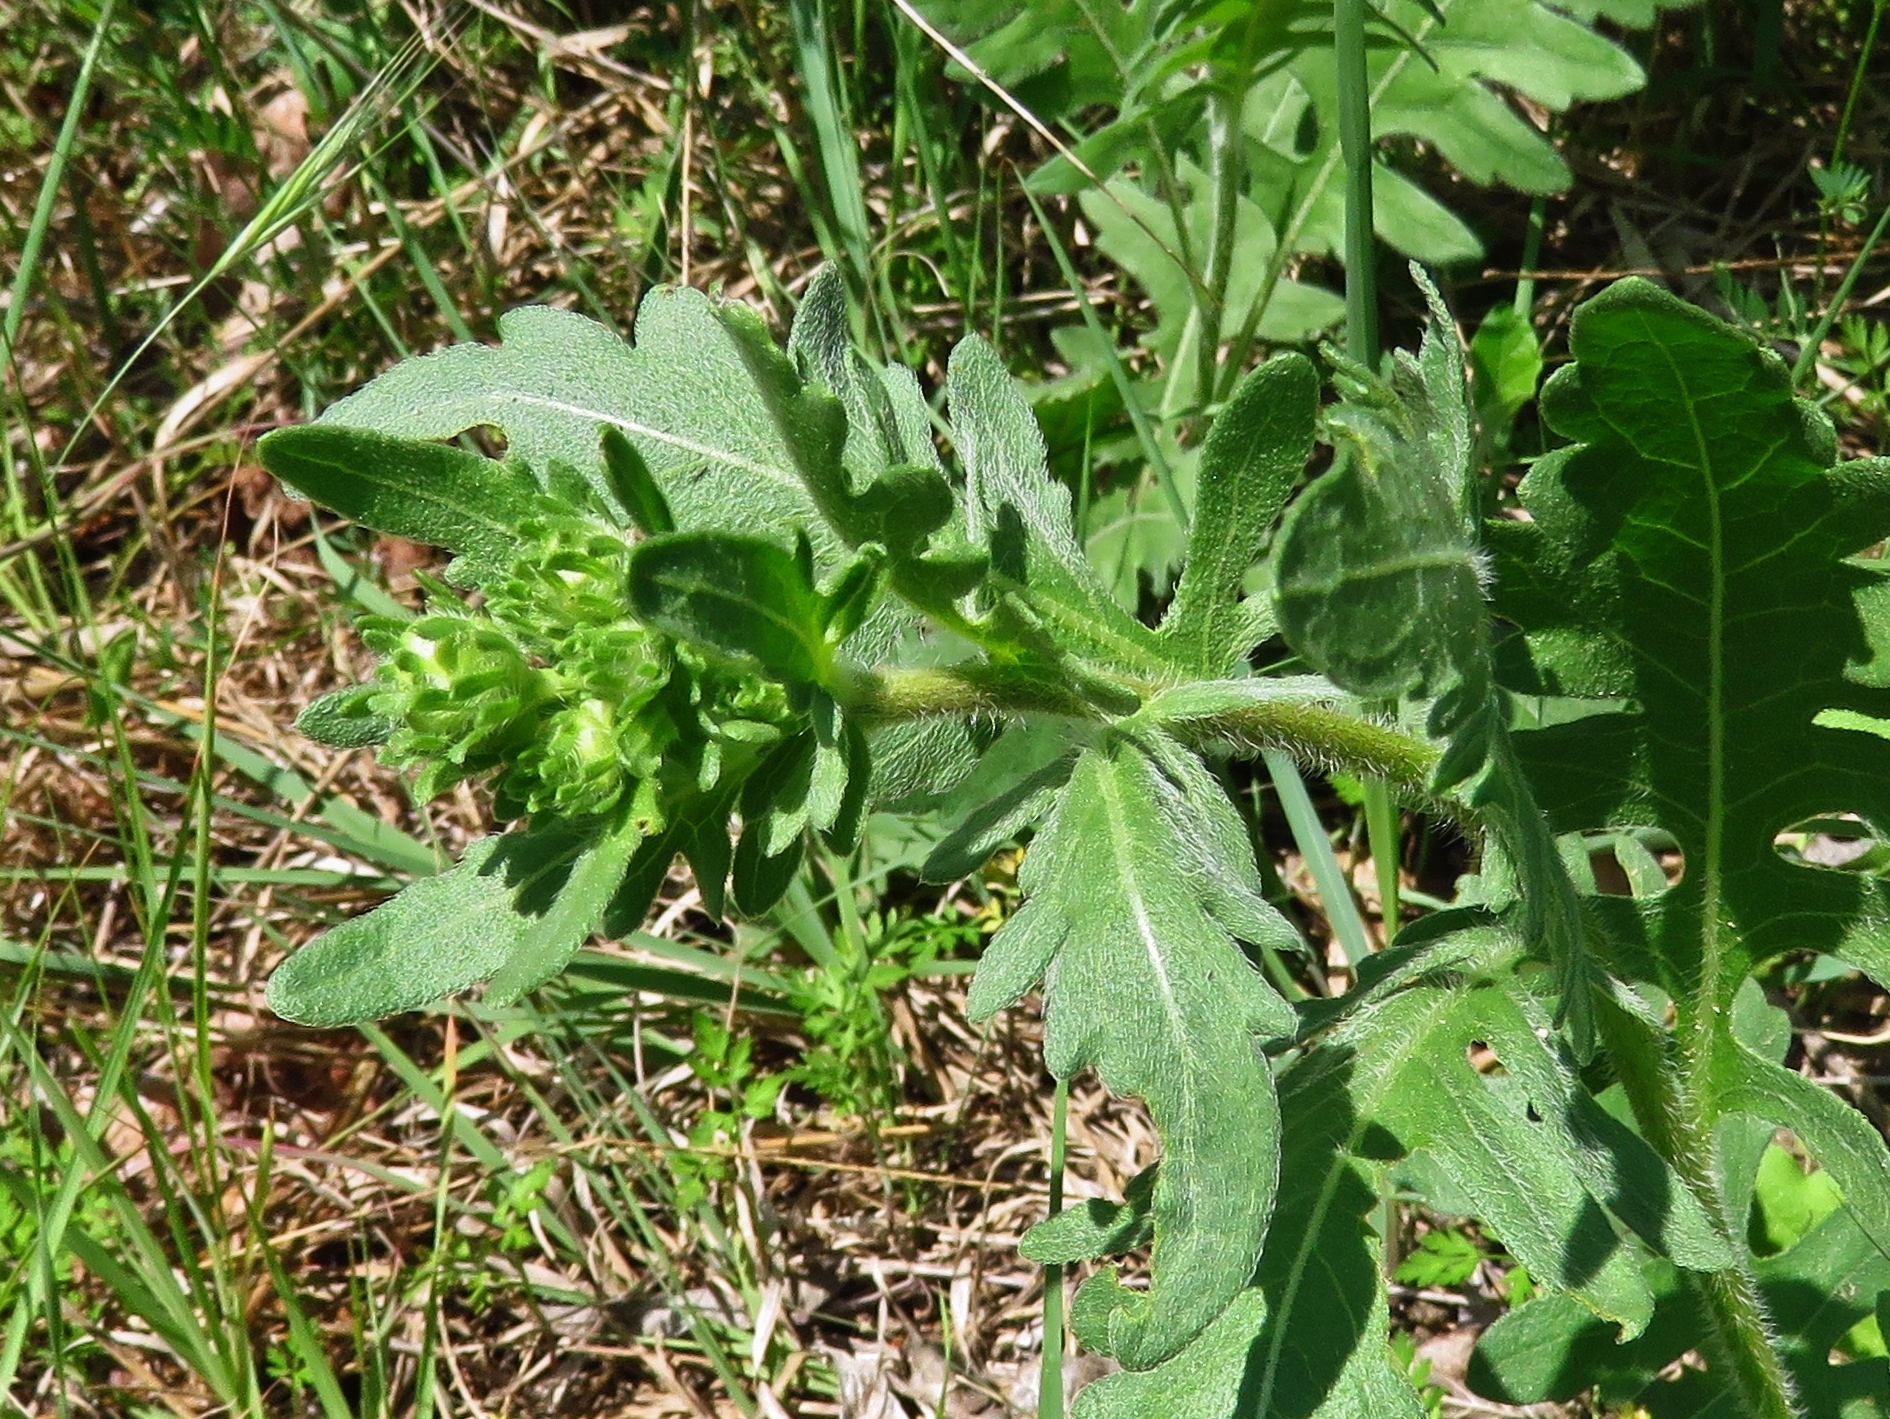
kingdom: Plantae
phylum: Tracheophyta
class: Magnoliopsida
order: Asterales
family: Asteraceae
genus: Engelmannia
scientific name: Engelmannia peristenia
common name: Engelmann's daisy
